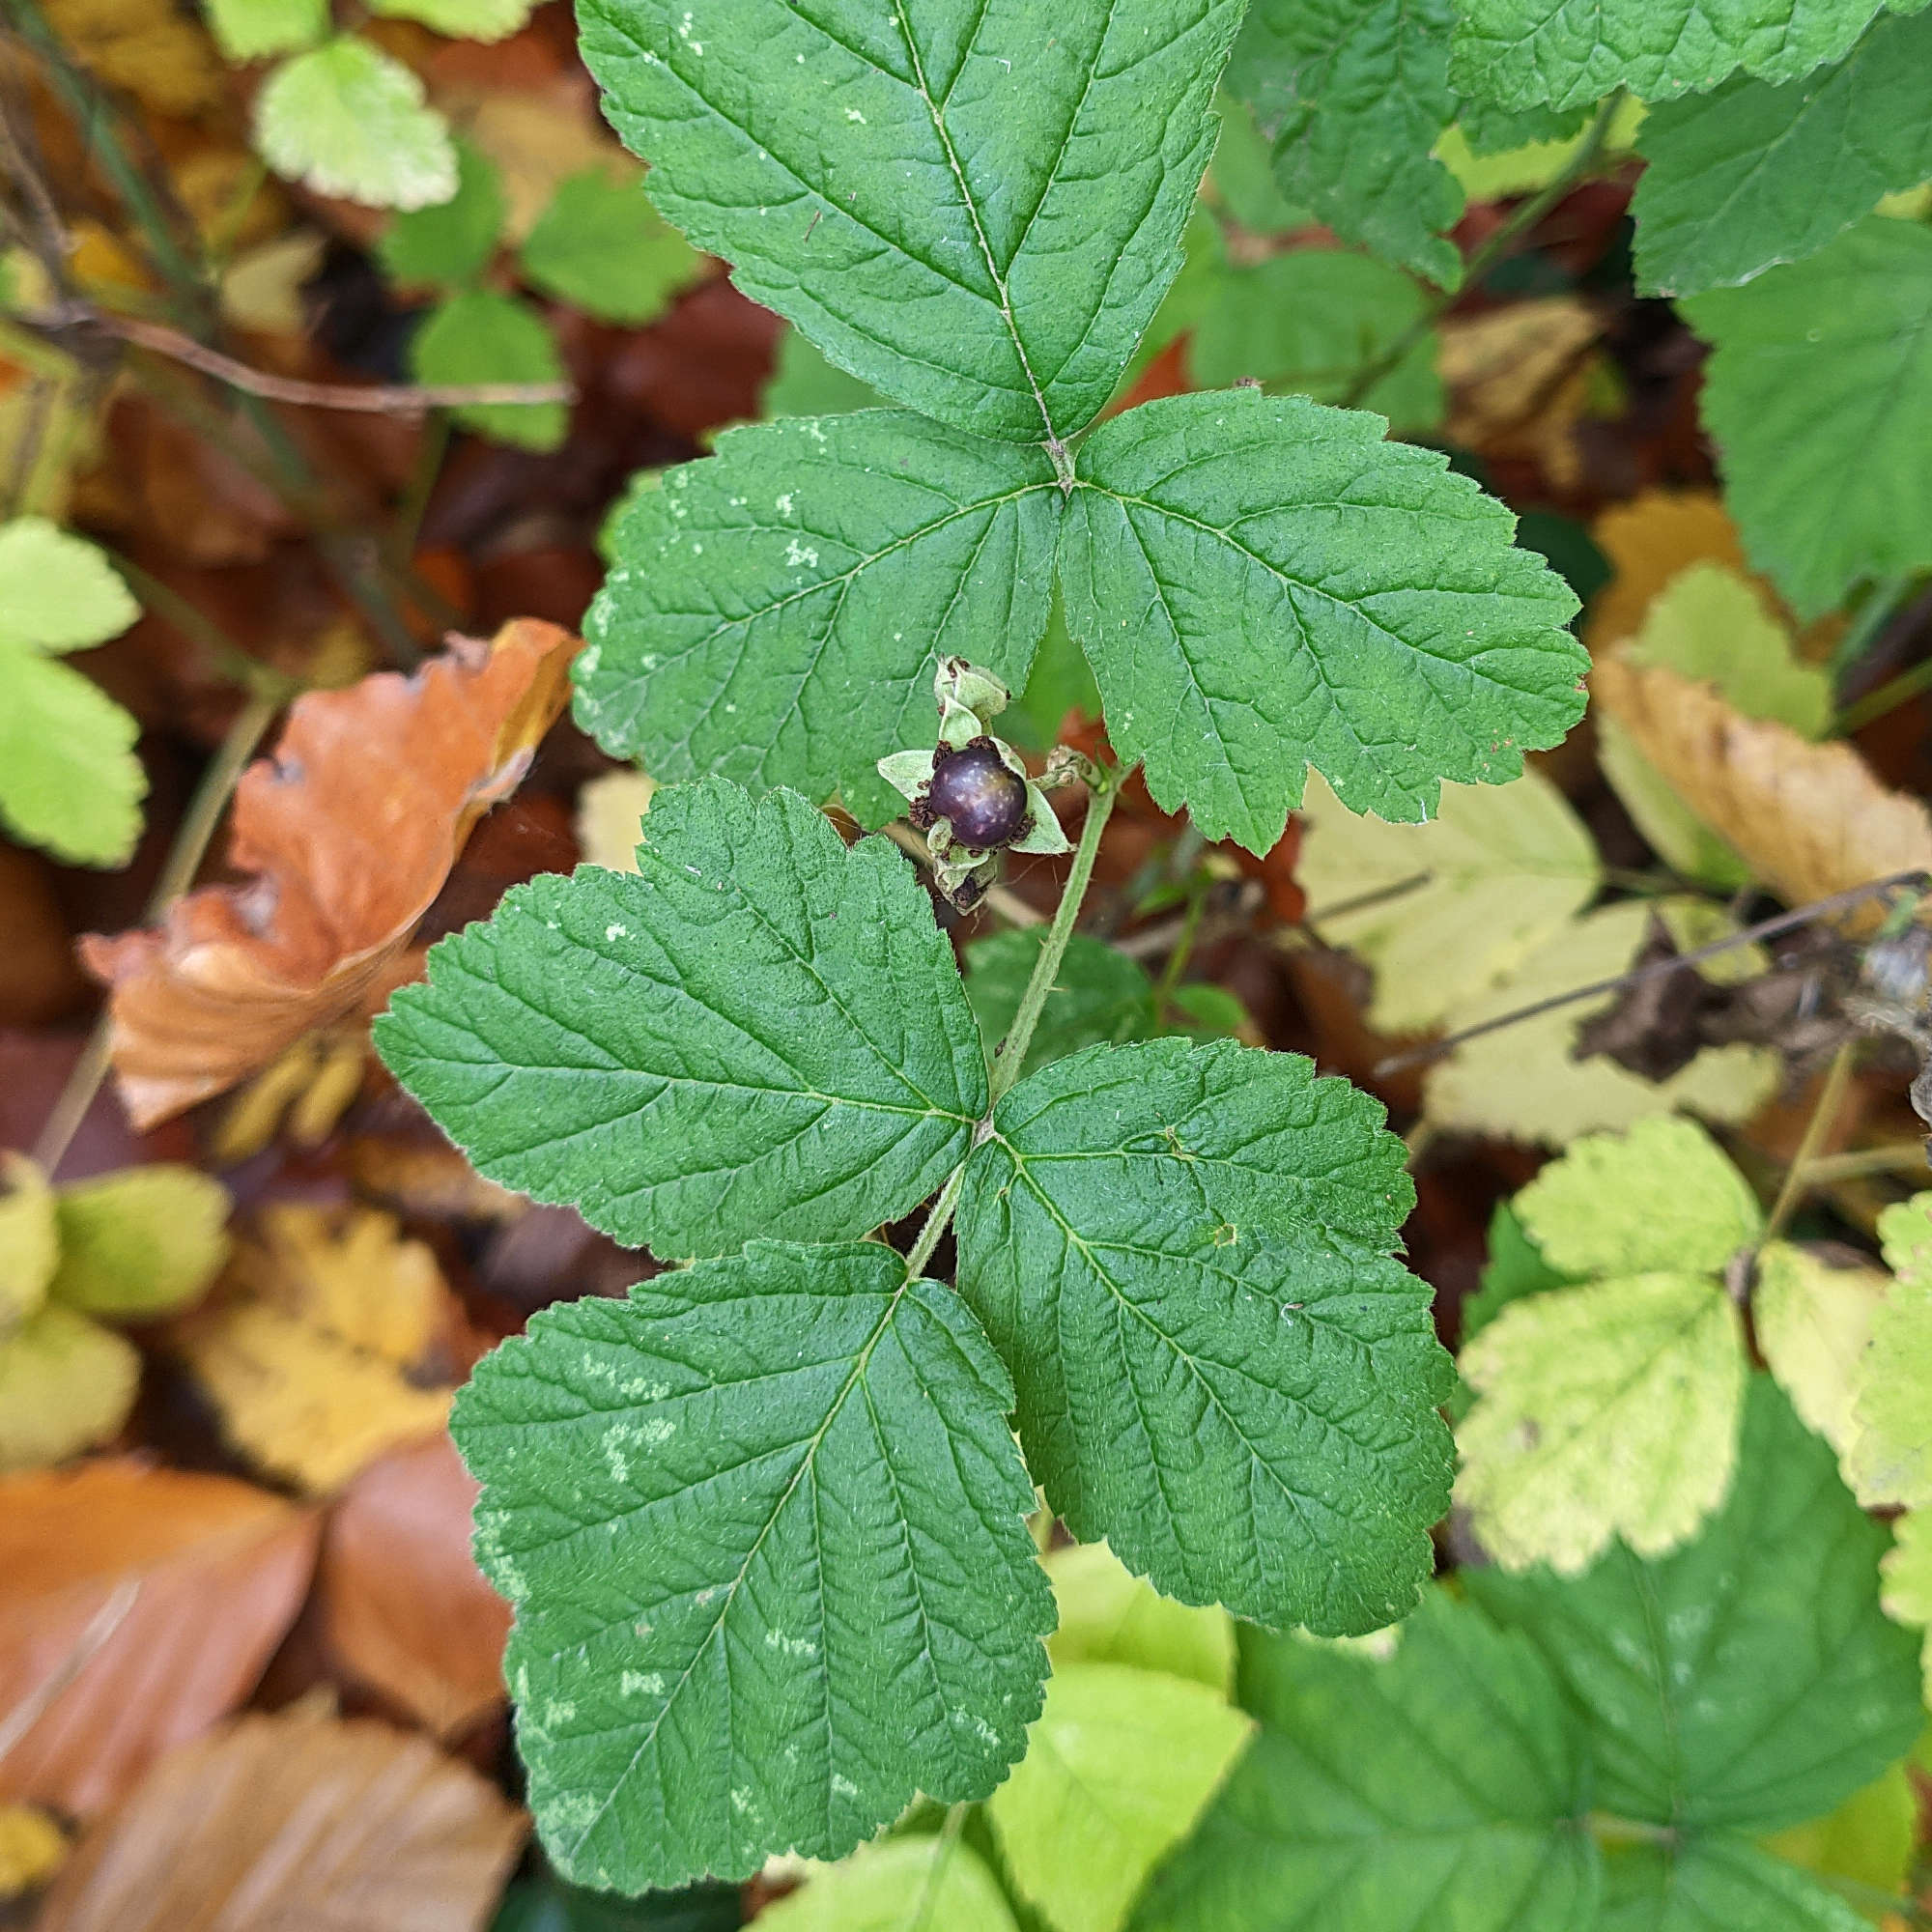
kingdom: Plantae
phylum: Tracheophyta
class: Magnoliopsida
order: Rosales
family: Rosaceae
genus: Rubus
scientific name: Rubus caesius
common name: Dewberry
